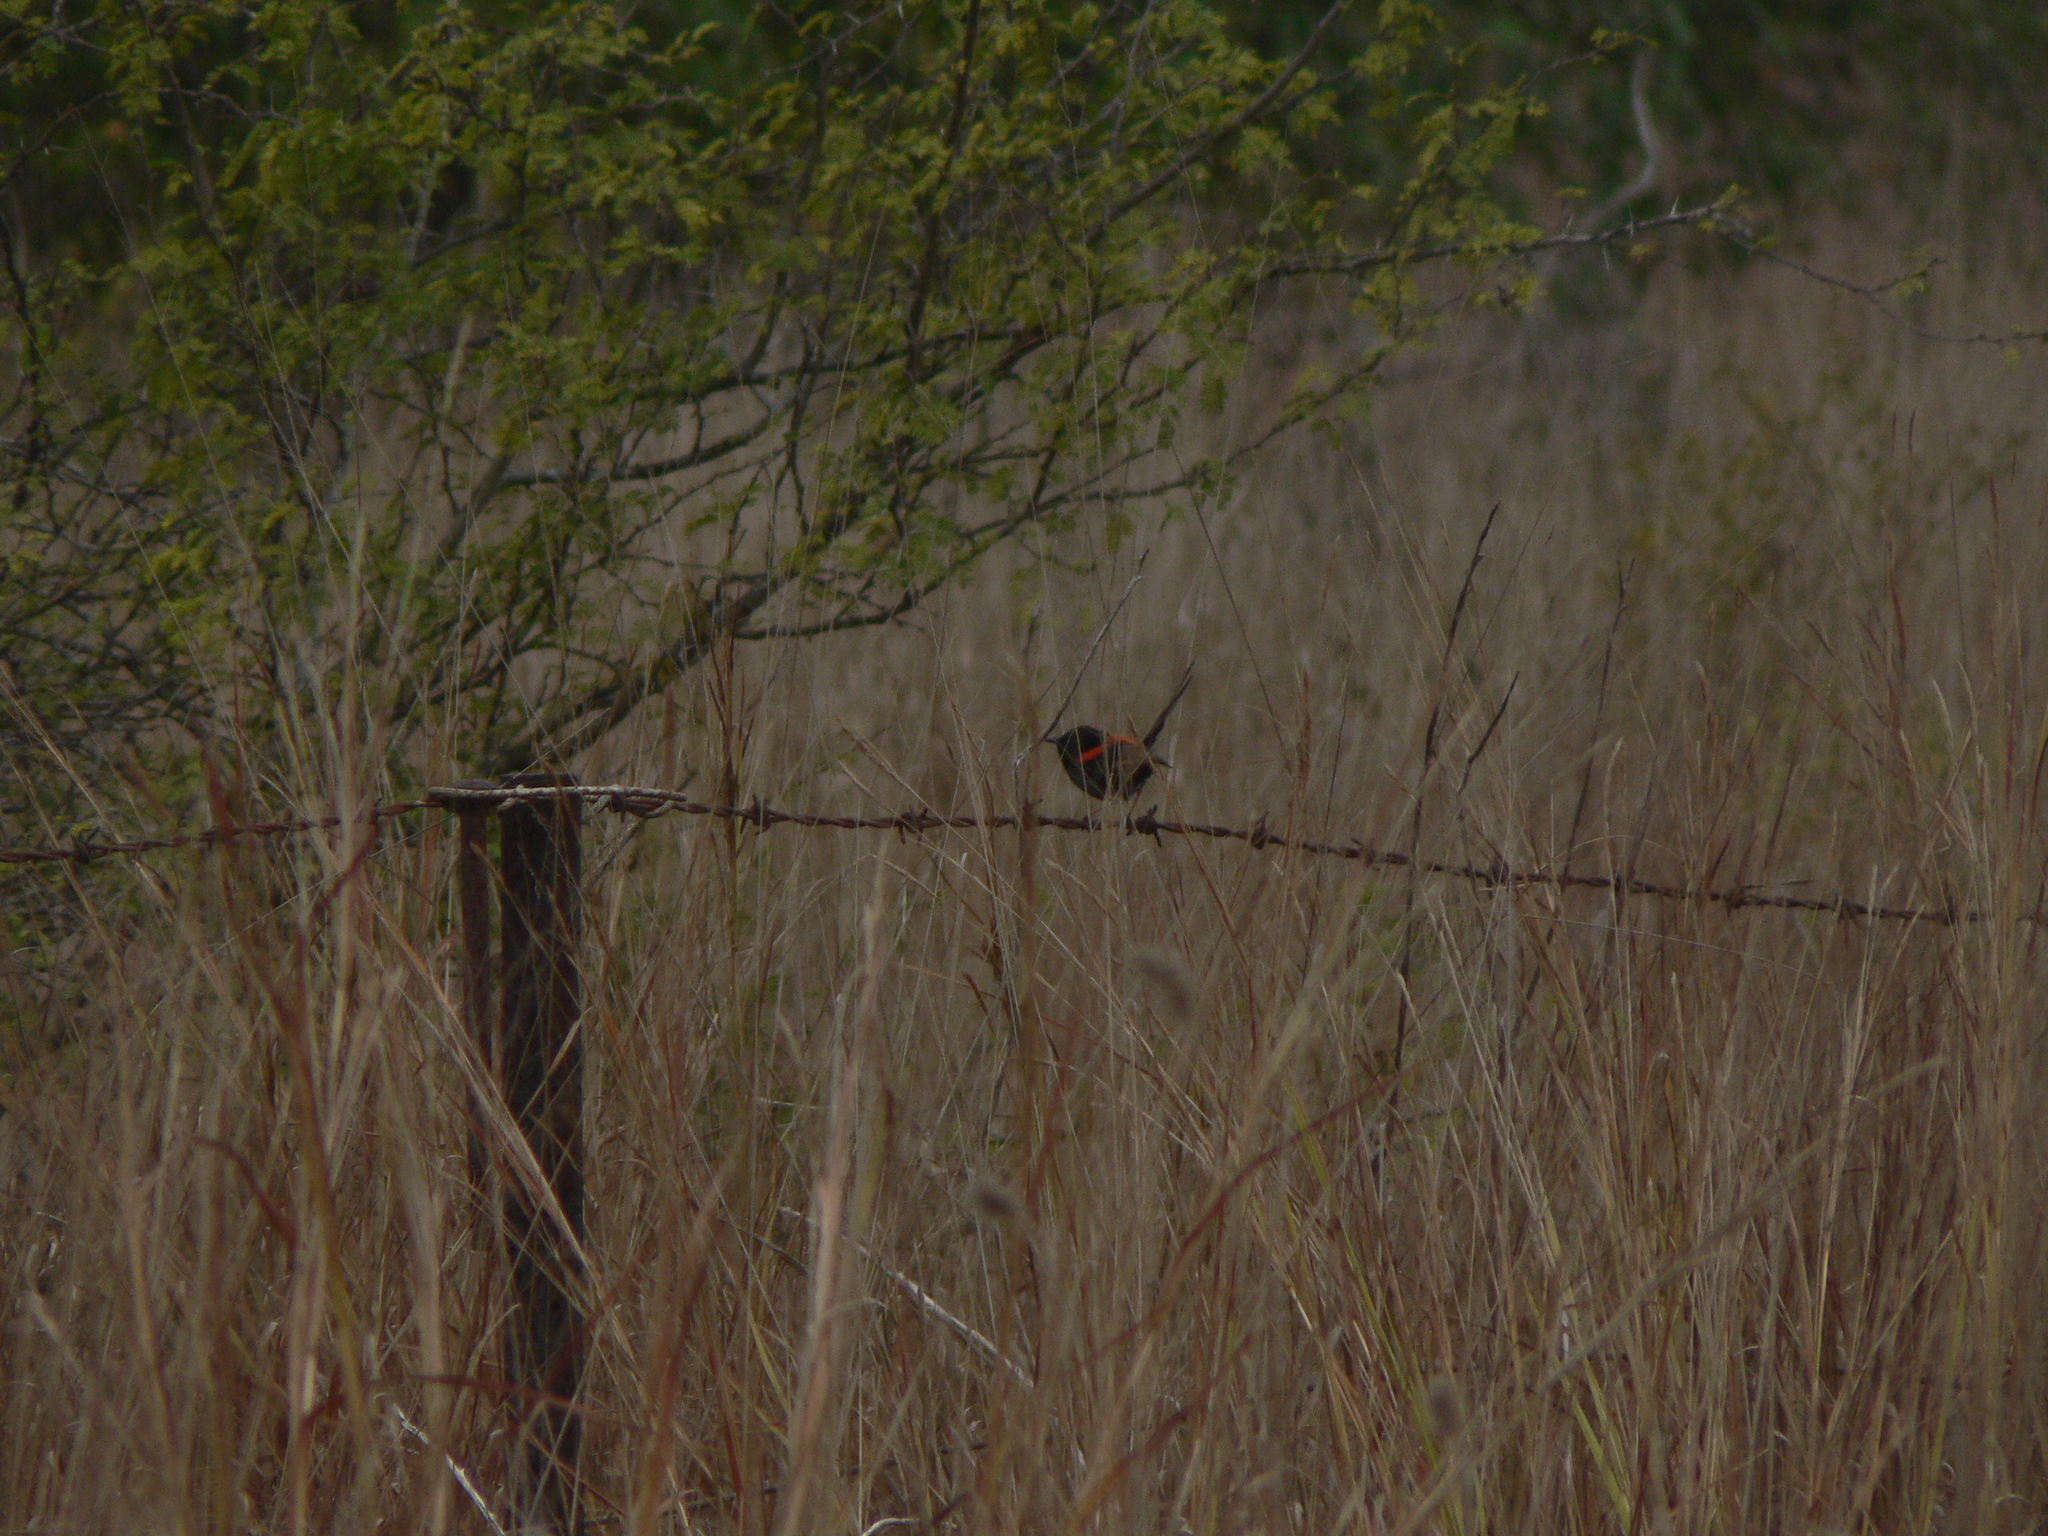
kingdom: Animalia
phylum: Chordata
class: Aves
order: Passeriformes
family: Maluridae
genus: Malurus
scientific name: Malurus melanocephalus
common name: Red-backed fairywren
